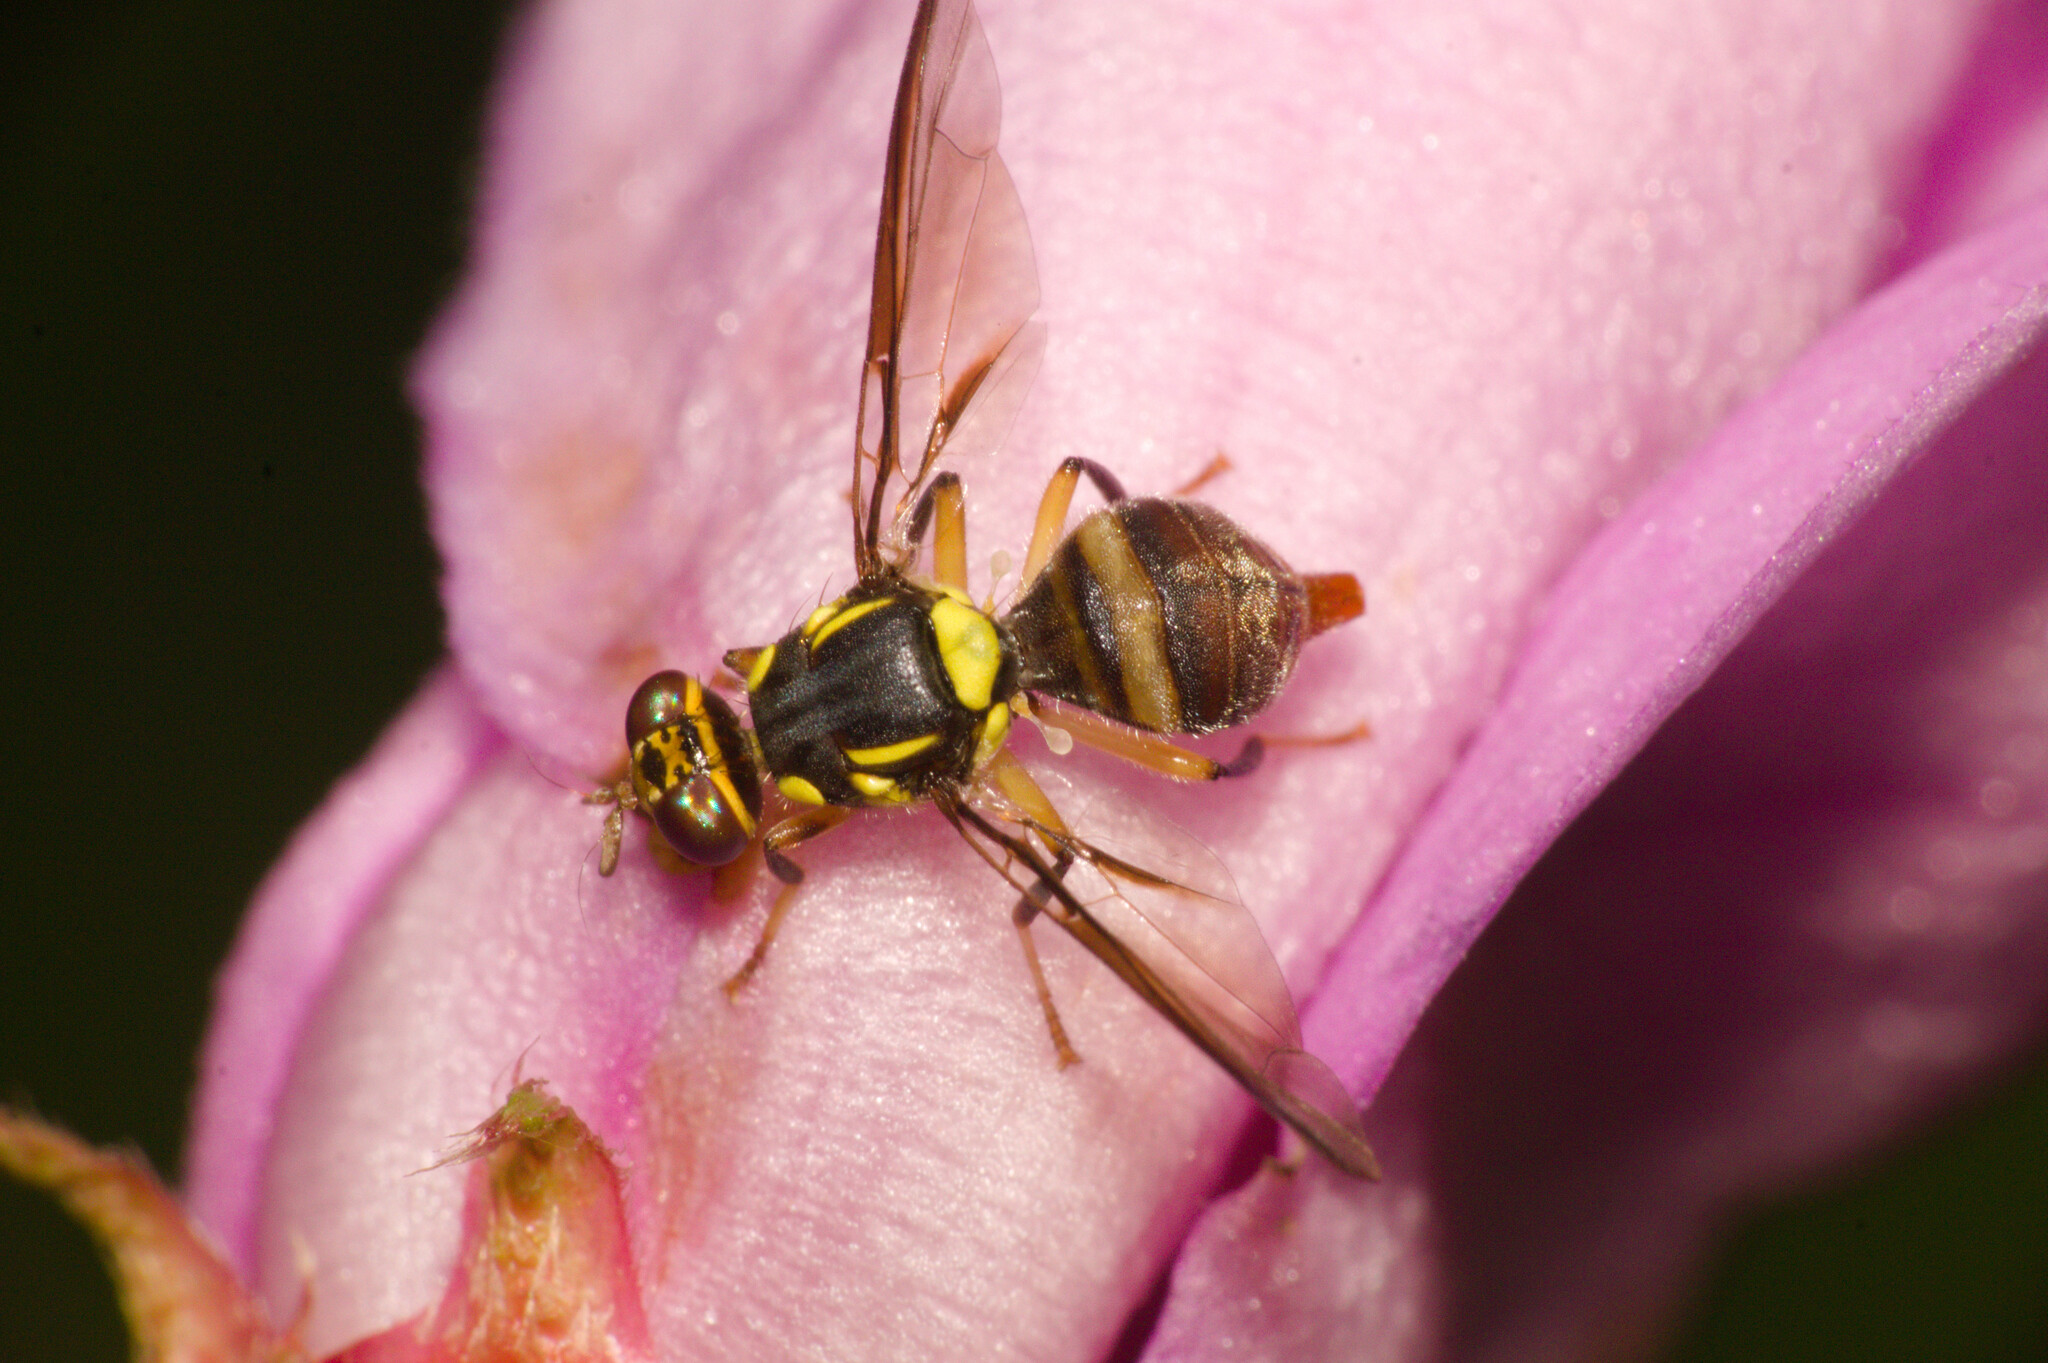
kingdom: Animalia
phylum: Arthropoda
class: Insecta
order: Diptera
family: Tephritidae
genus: Bactrocera
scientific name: Bactrocera dorsalis
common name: Oriental fruit fly
